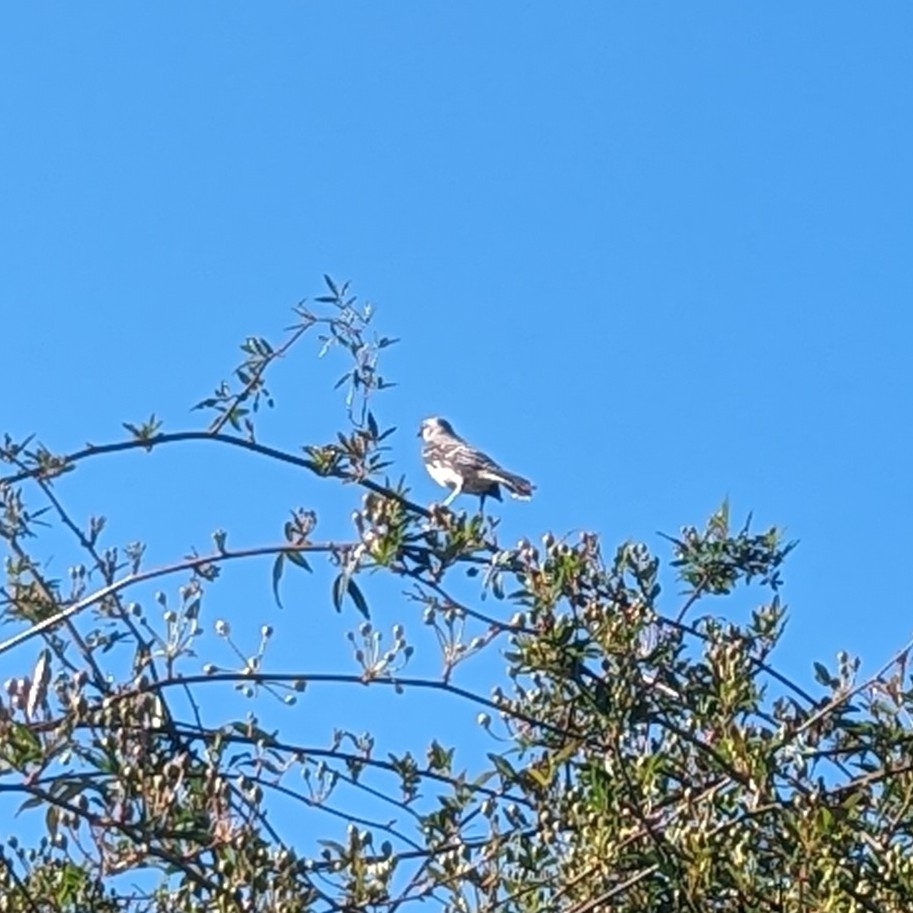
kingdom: Animalia
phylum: Chordata
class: Aves
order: Passeriformes
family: Mimidae
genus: Mimus
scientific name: Mimus polyglottos
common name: Northern mockingbird
